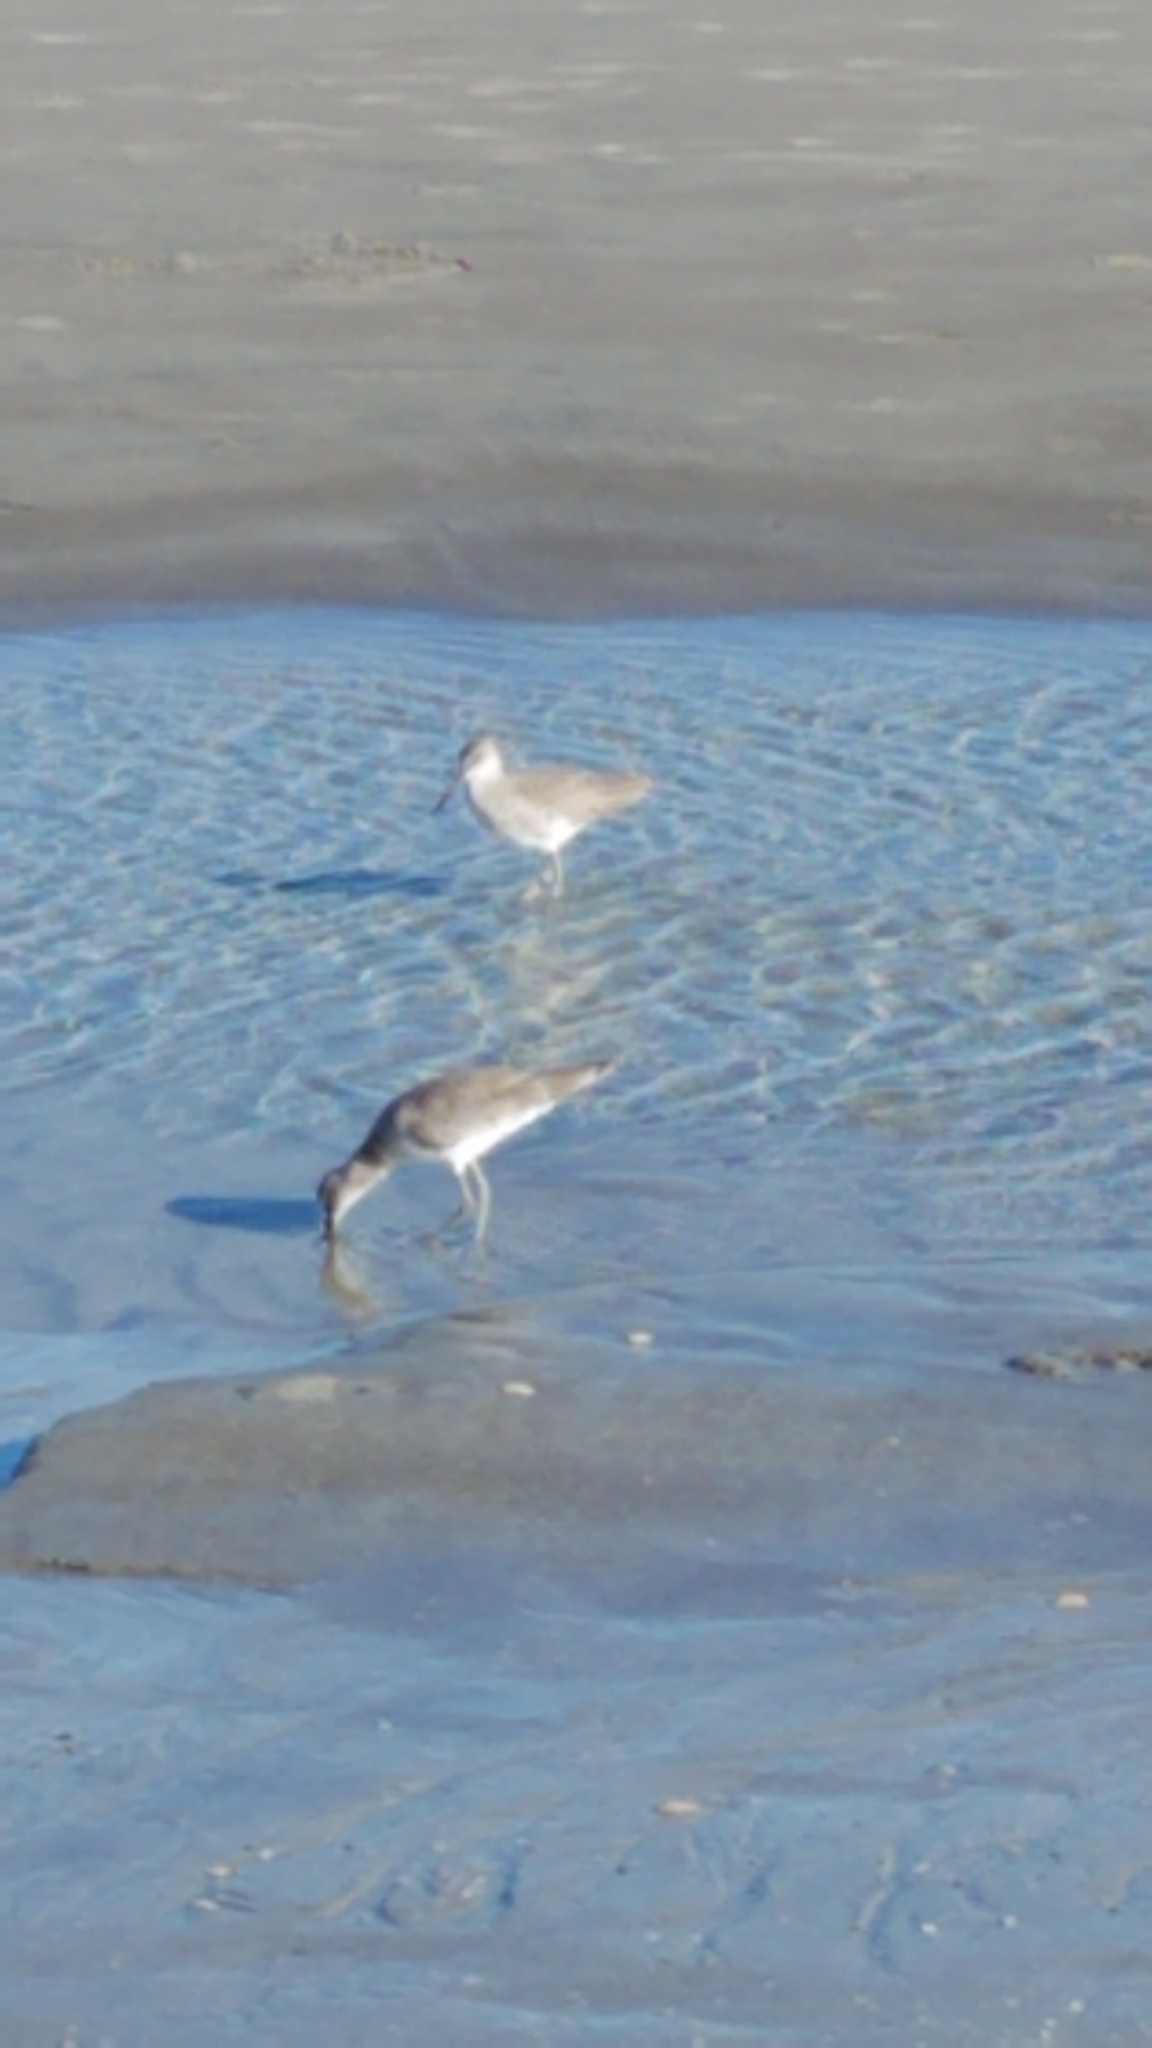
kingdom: Animalia
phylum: Chordata
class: Aves
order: Charadriiformes
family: Scolopacidae
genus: Tringa
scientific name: Tringa semipalmata
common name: Willet
